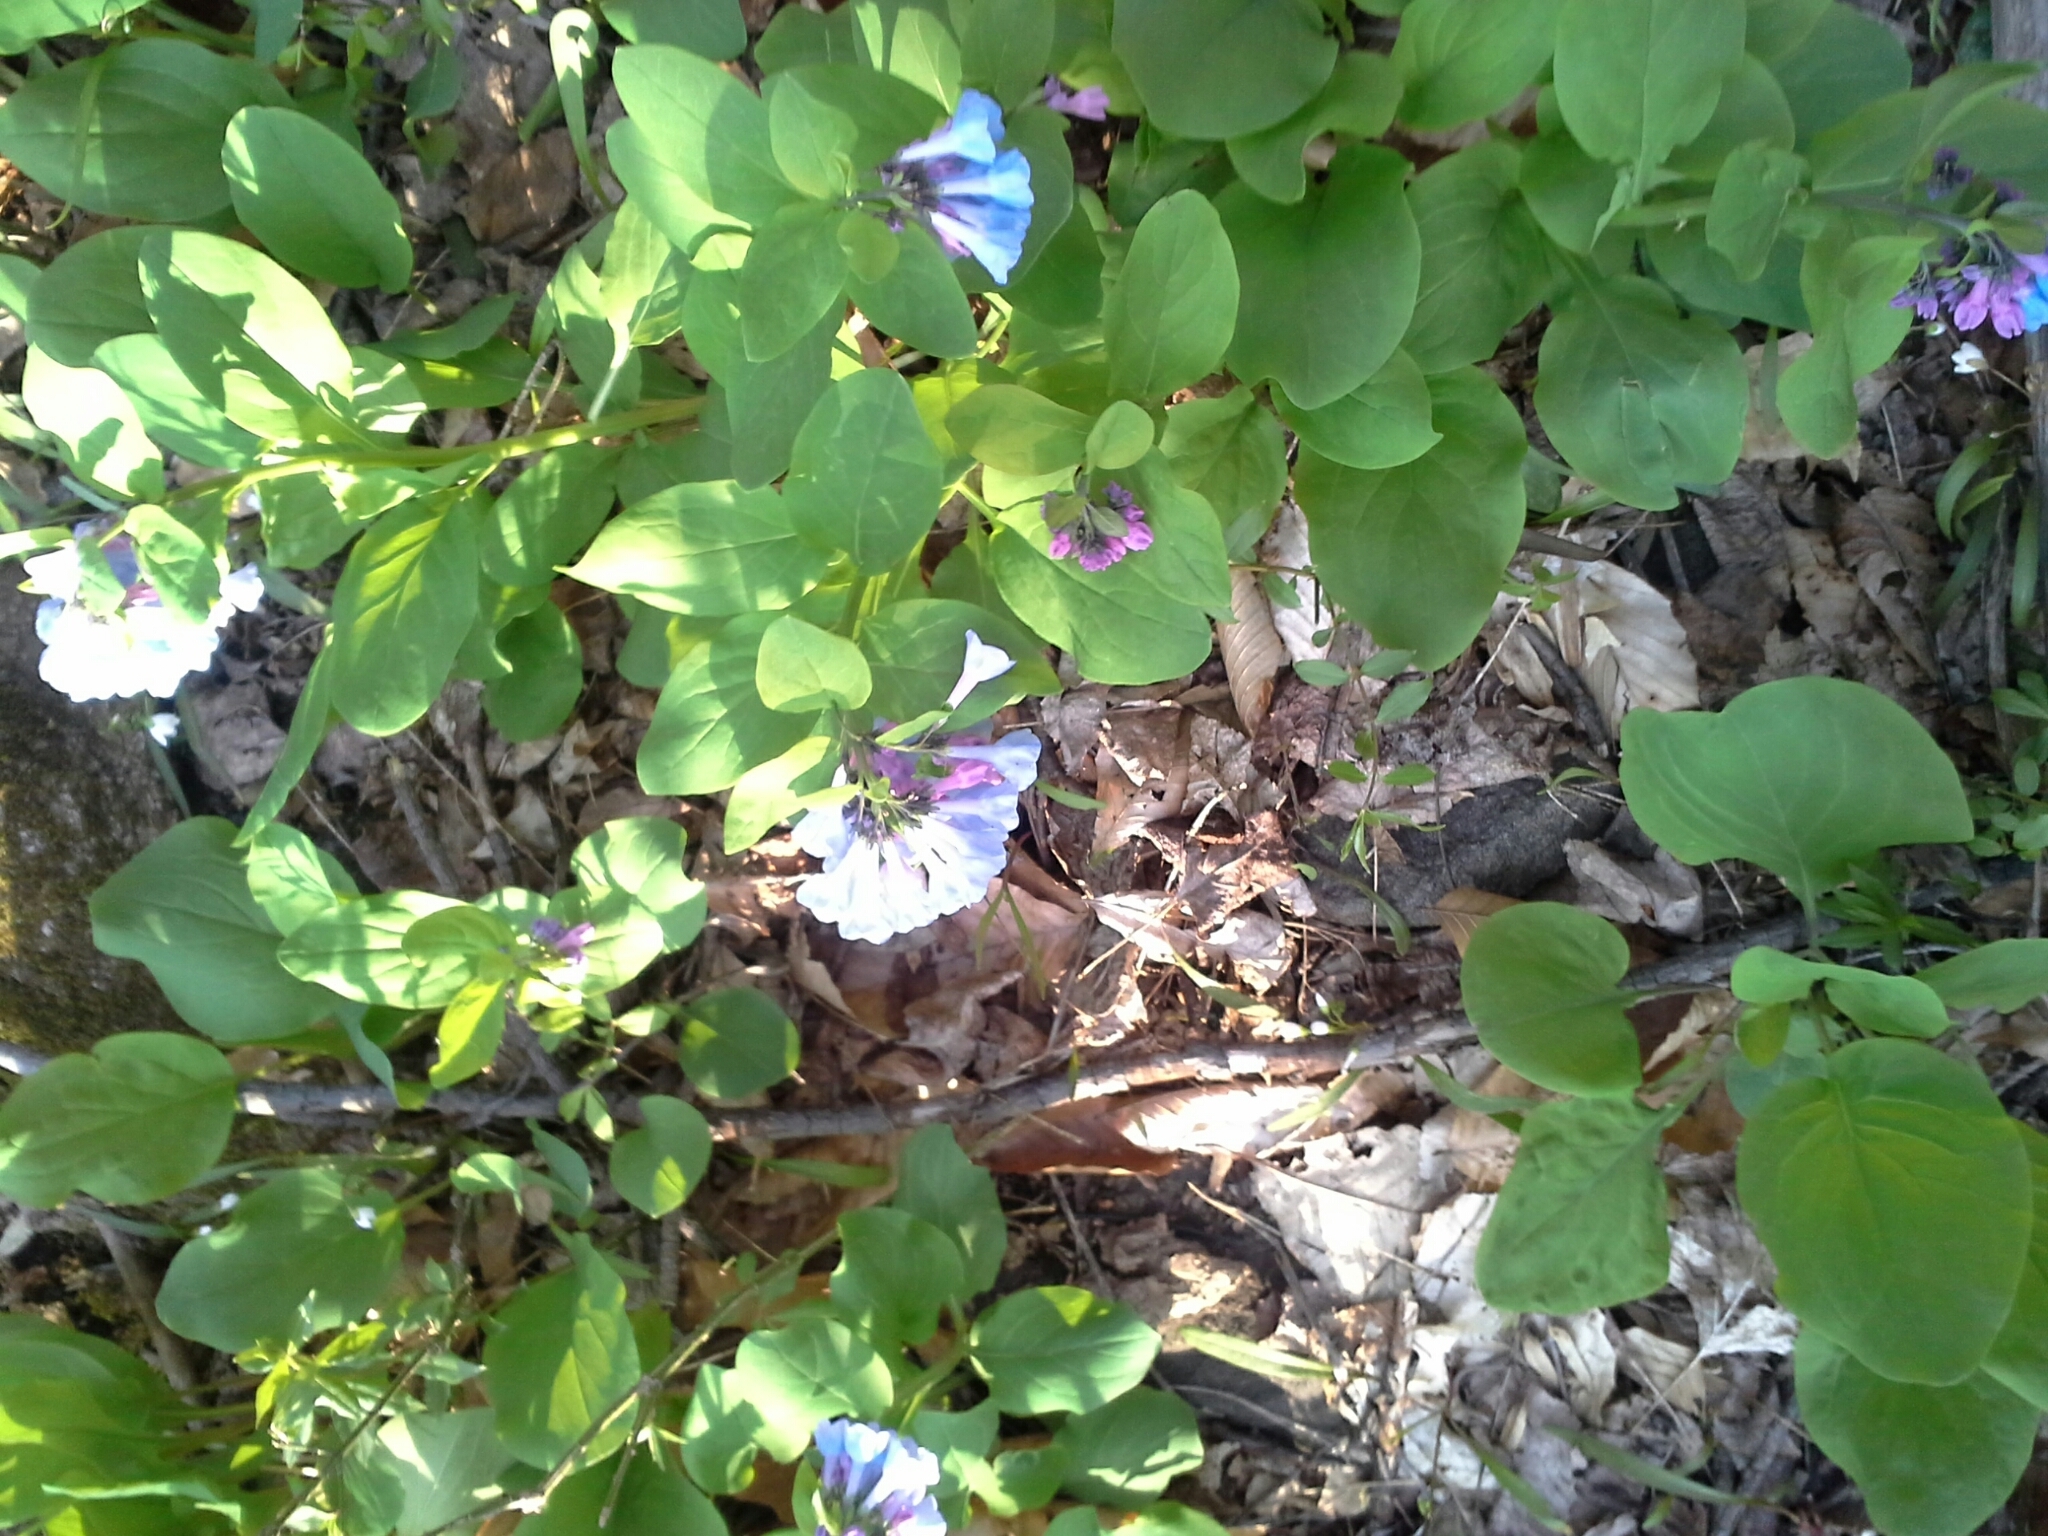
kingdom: Plantae
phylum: Tracheophyta
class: Magnoliopsida
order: Boraginales
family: Boraginaceae
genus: Mertensia
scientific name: Mertensia virginica
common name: Virginia bluebells
